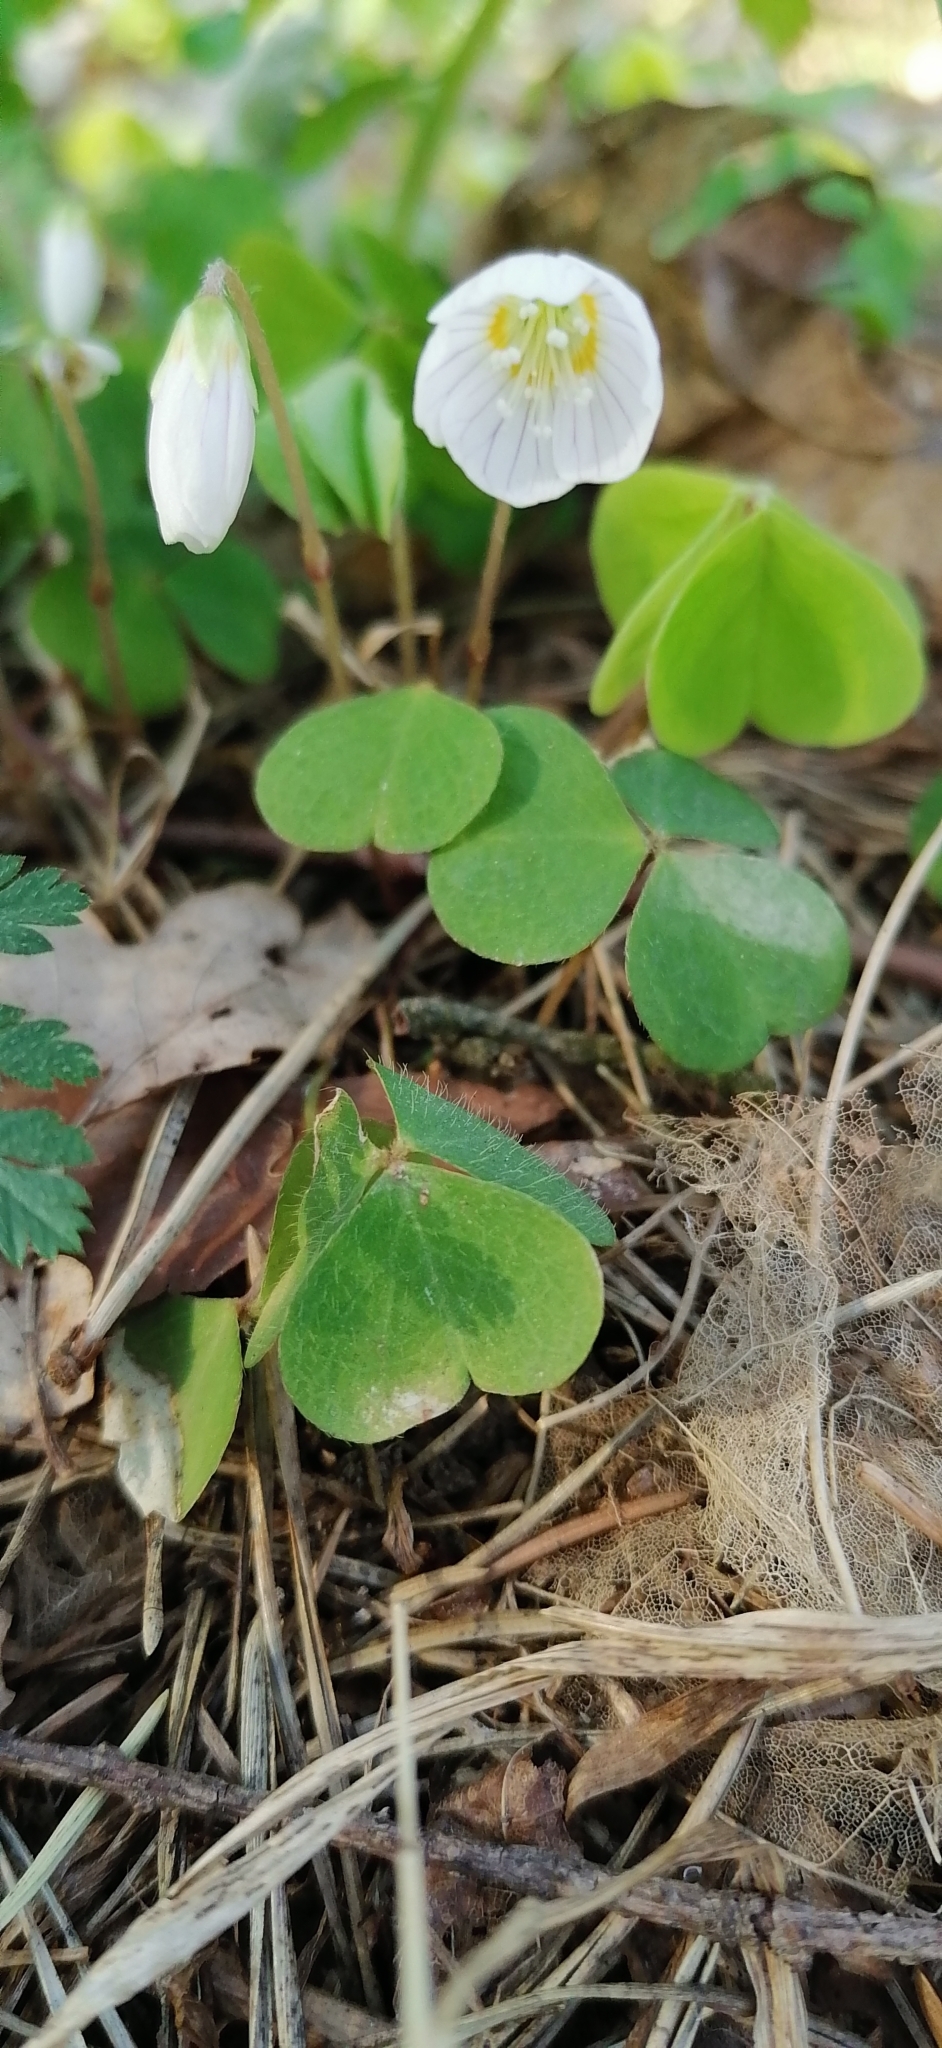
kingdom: Plantae
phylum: Tracheophyta
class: Magnoliopsida
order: Oxalidales
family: Oxalidaceae
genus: Oxalis
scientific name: Oxalis acetosella
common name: Wood-sorrel
